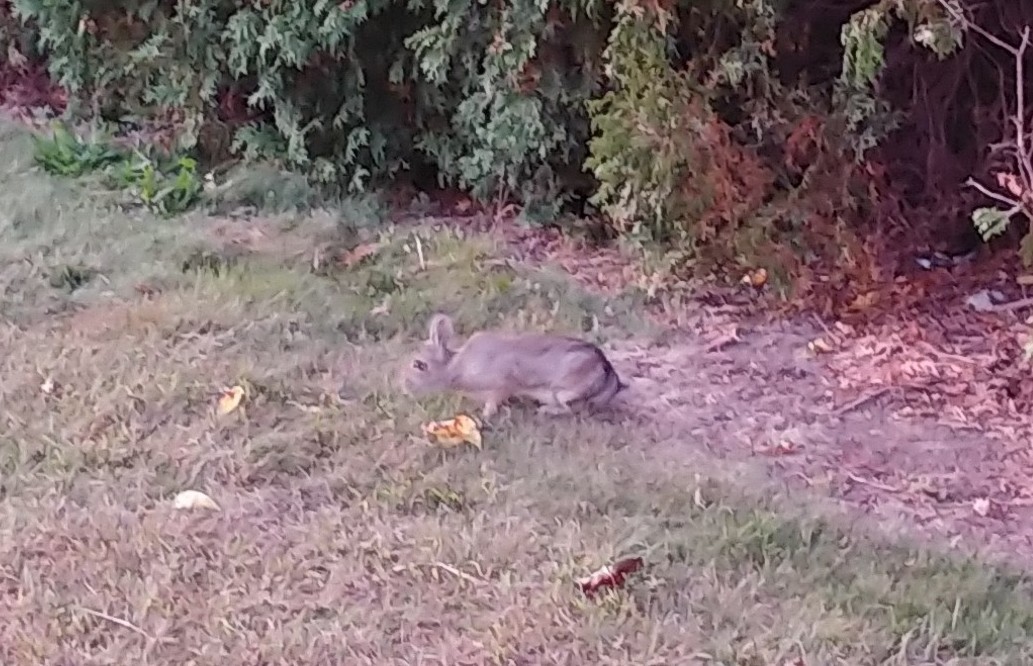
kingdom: Animalia
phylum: Chordata
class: Mammalia
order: Lagomorpha
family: Leporidae
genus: Sylvilagus
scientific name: Sylvilagus floridanus
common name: Eastern cottontail
